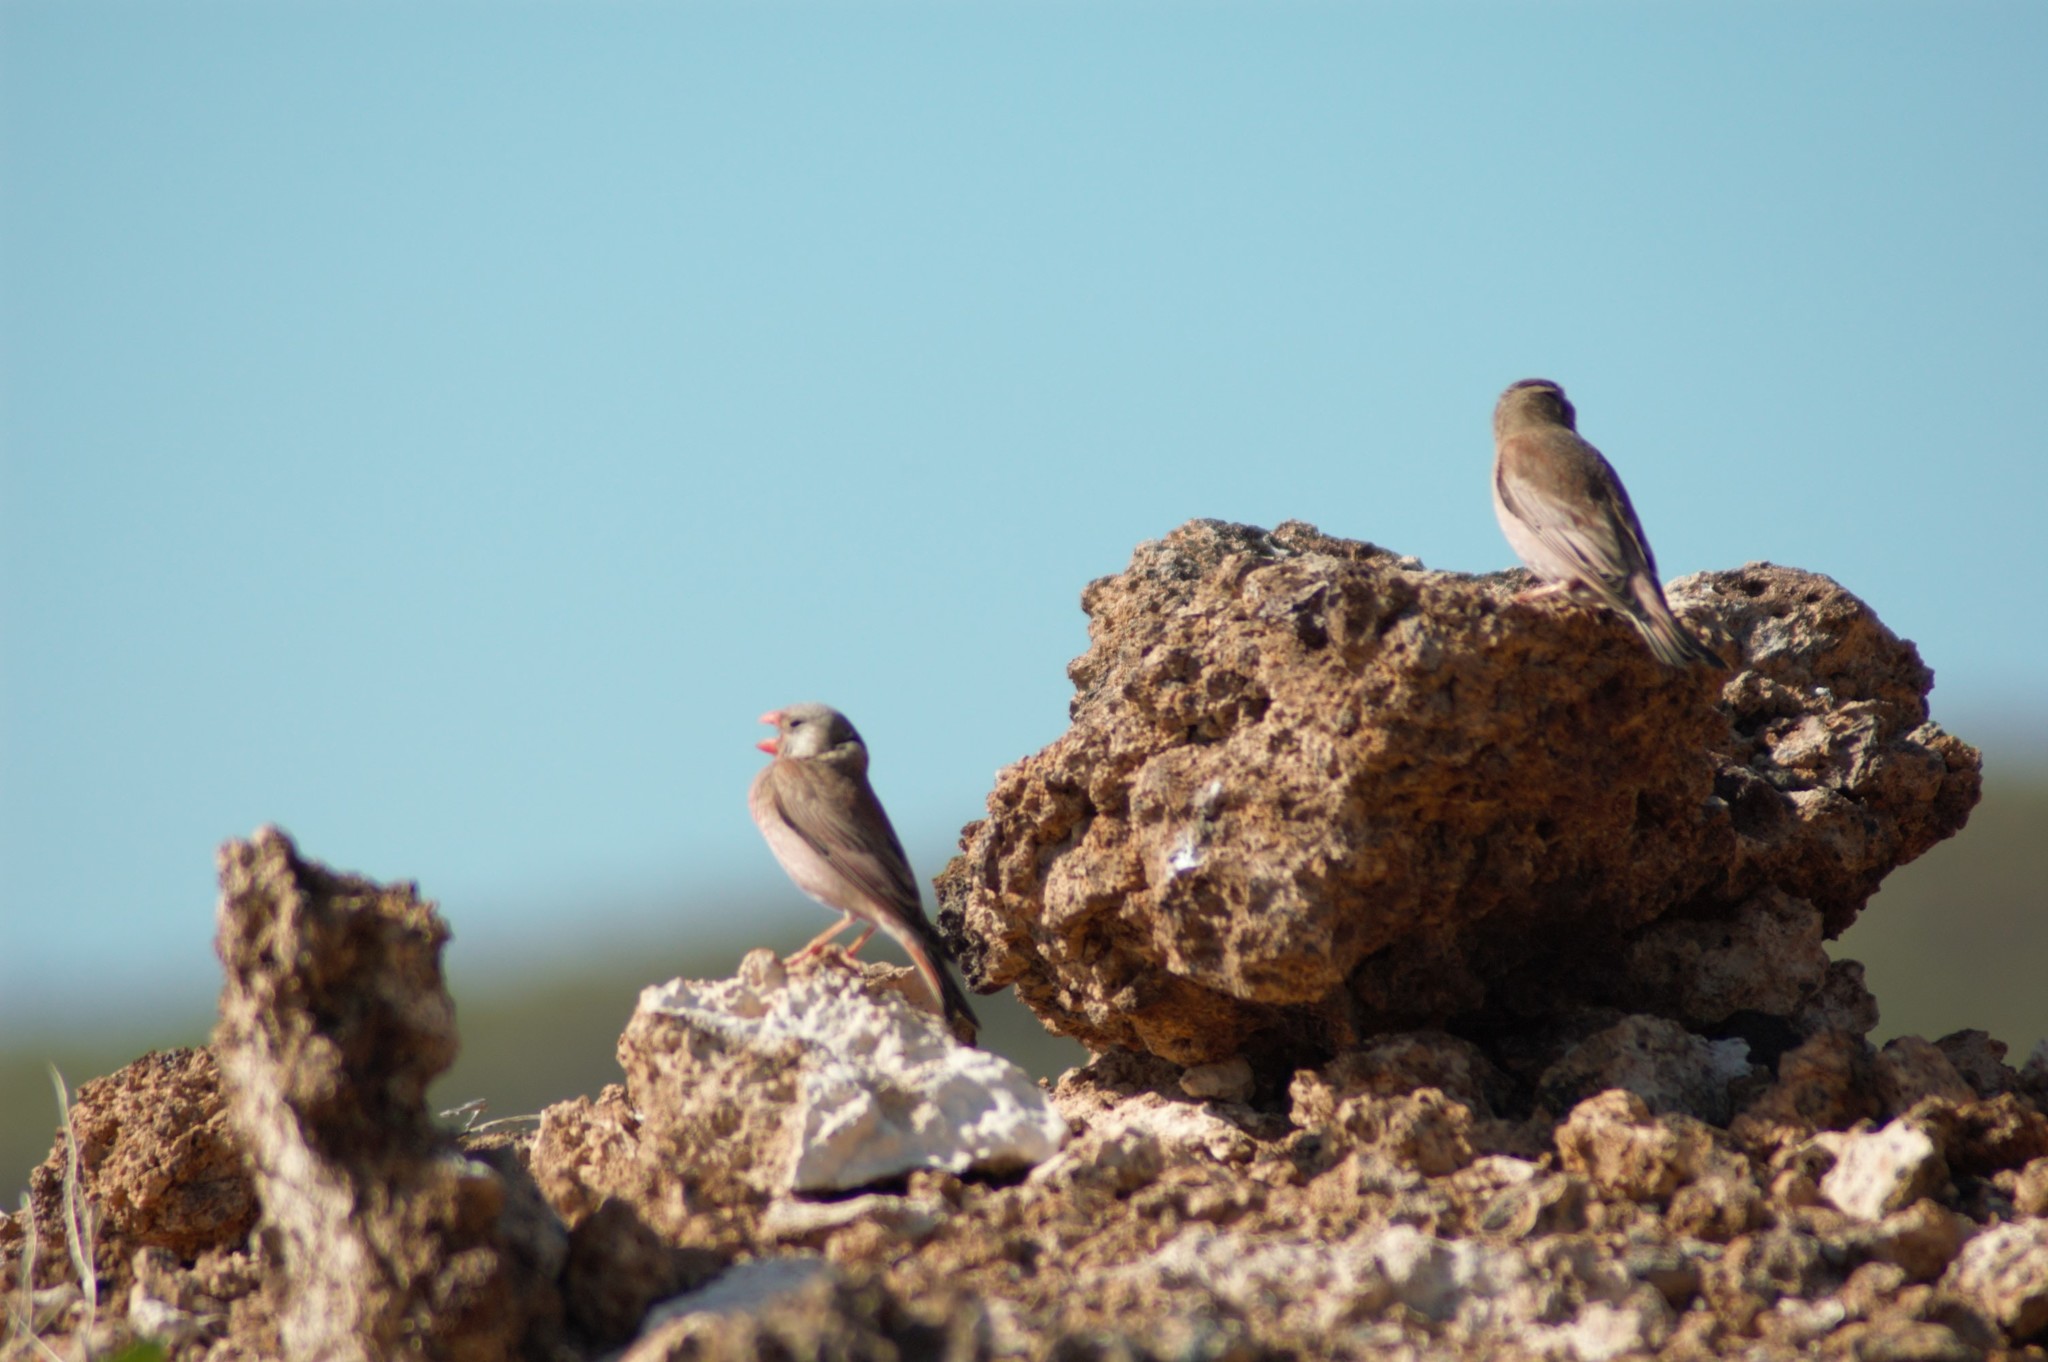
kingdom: Animalia
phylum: Chordata
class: Aves
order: Passeriformes
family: Fringillidae
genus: Bucanetes
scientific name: Bucanetes githagineus
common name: Trumpeter finch
